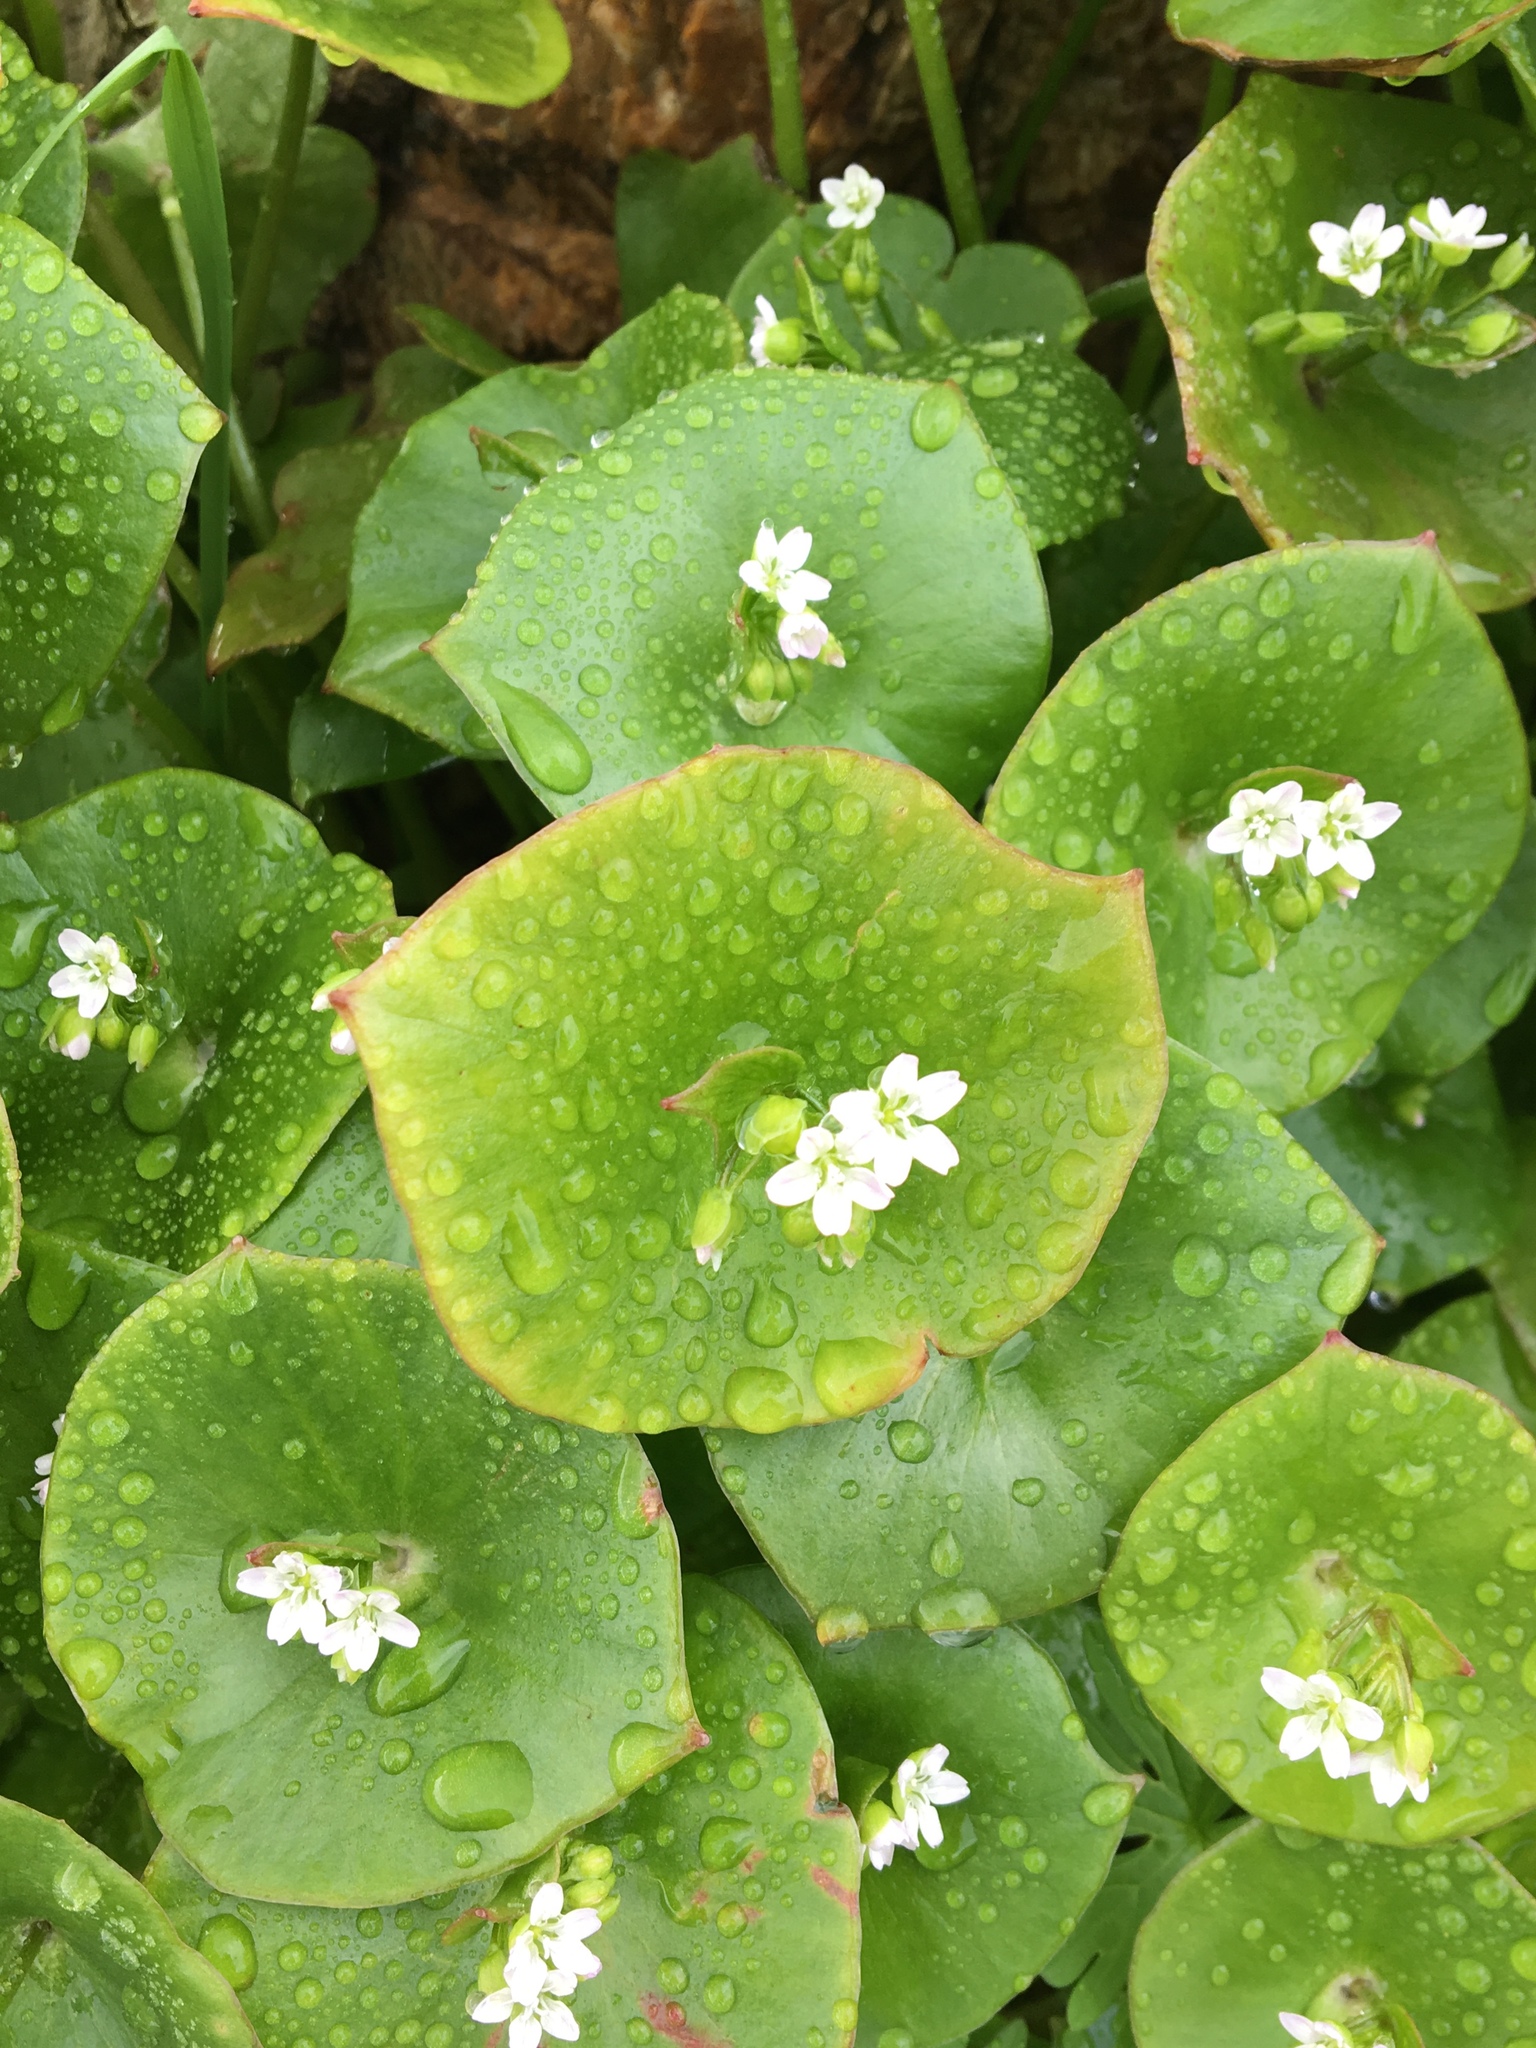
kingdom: Plantae
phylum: Tracheophyta
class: Magnoliopsida
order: Caryophyllales
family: Montiaceae
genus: Claytonia
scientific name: Claytonia perfoliata
